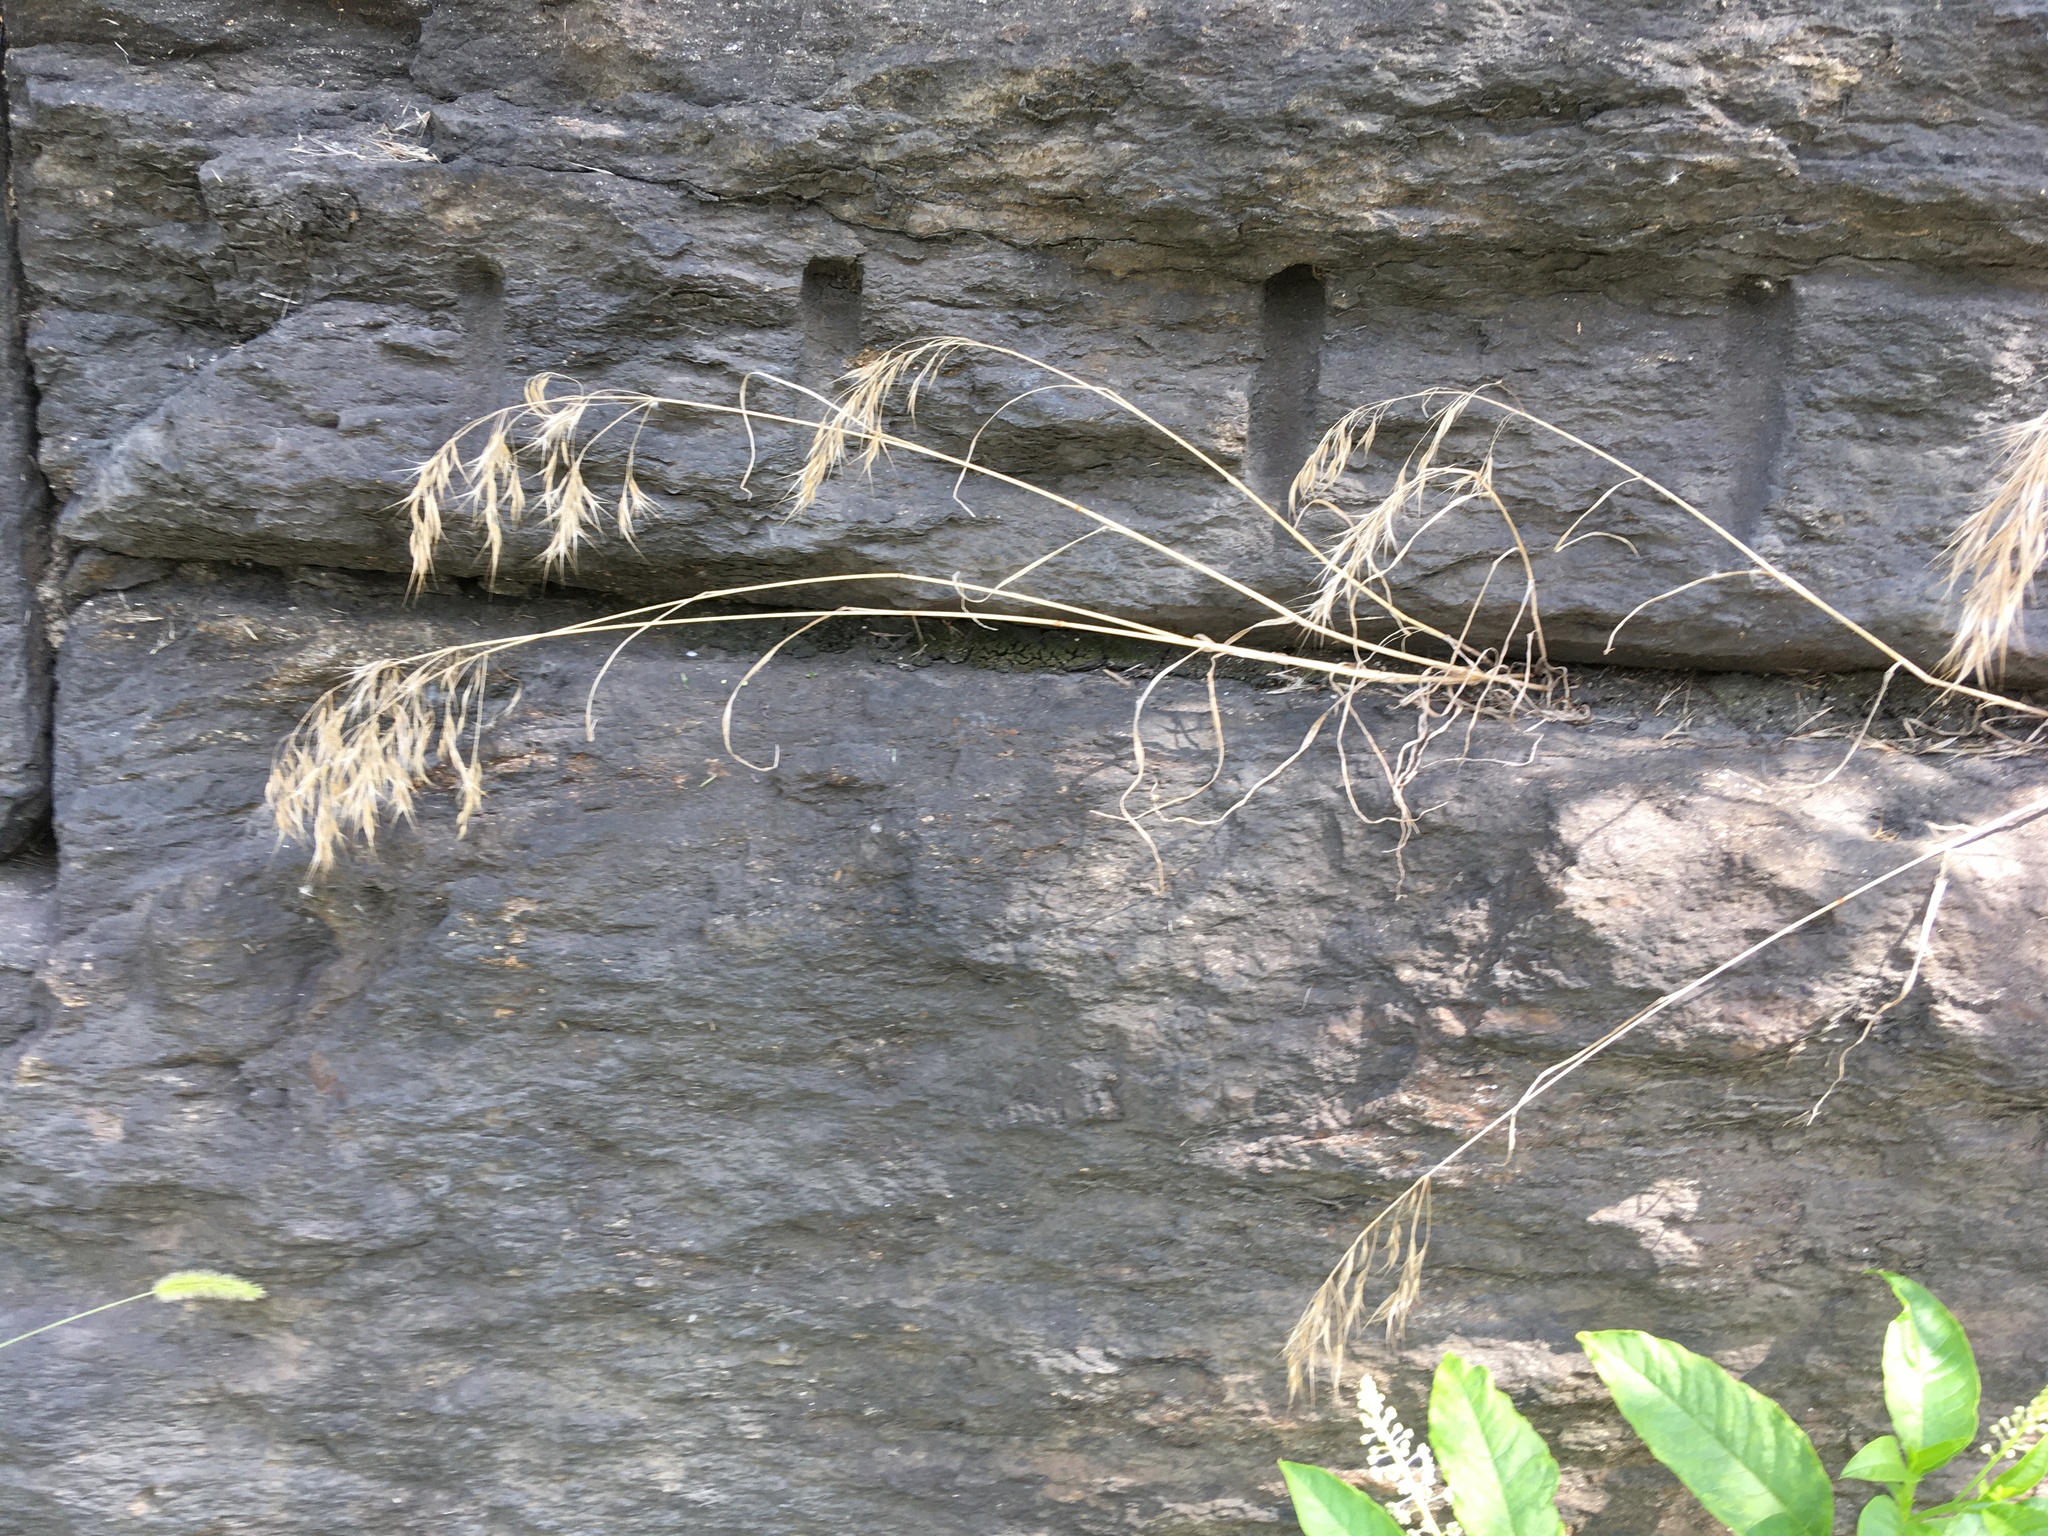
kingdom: Plantae
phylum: Tracheophyta
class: Liliopsida
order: Poales
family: Poaceae
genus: Bromus
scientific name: Bromus tectorum
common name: Cheatgrass
